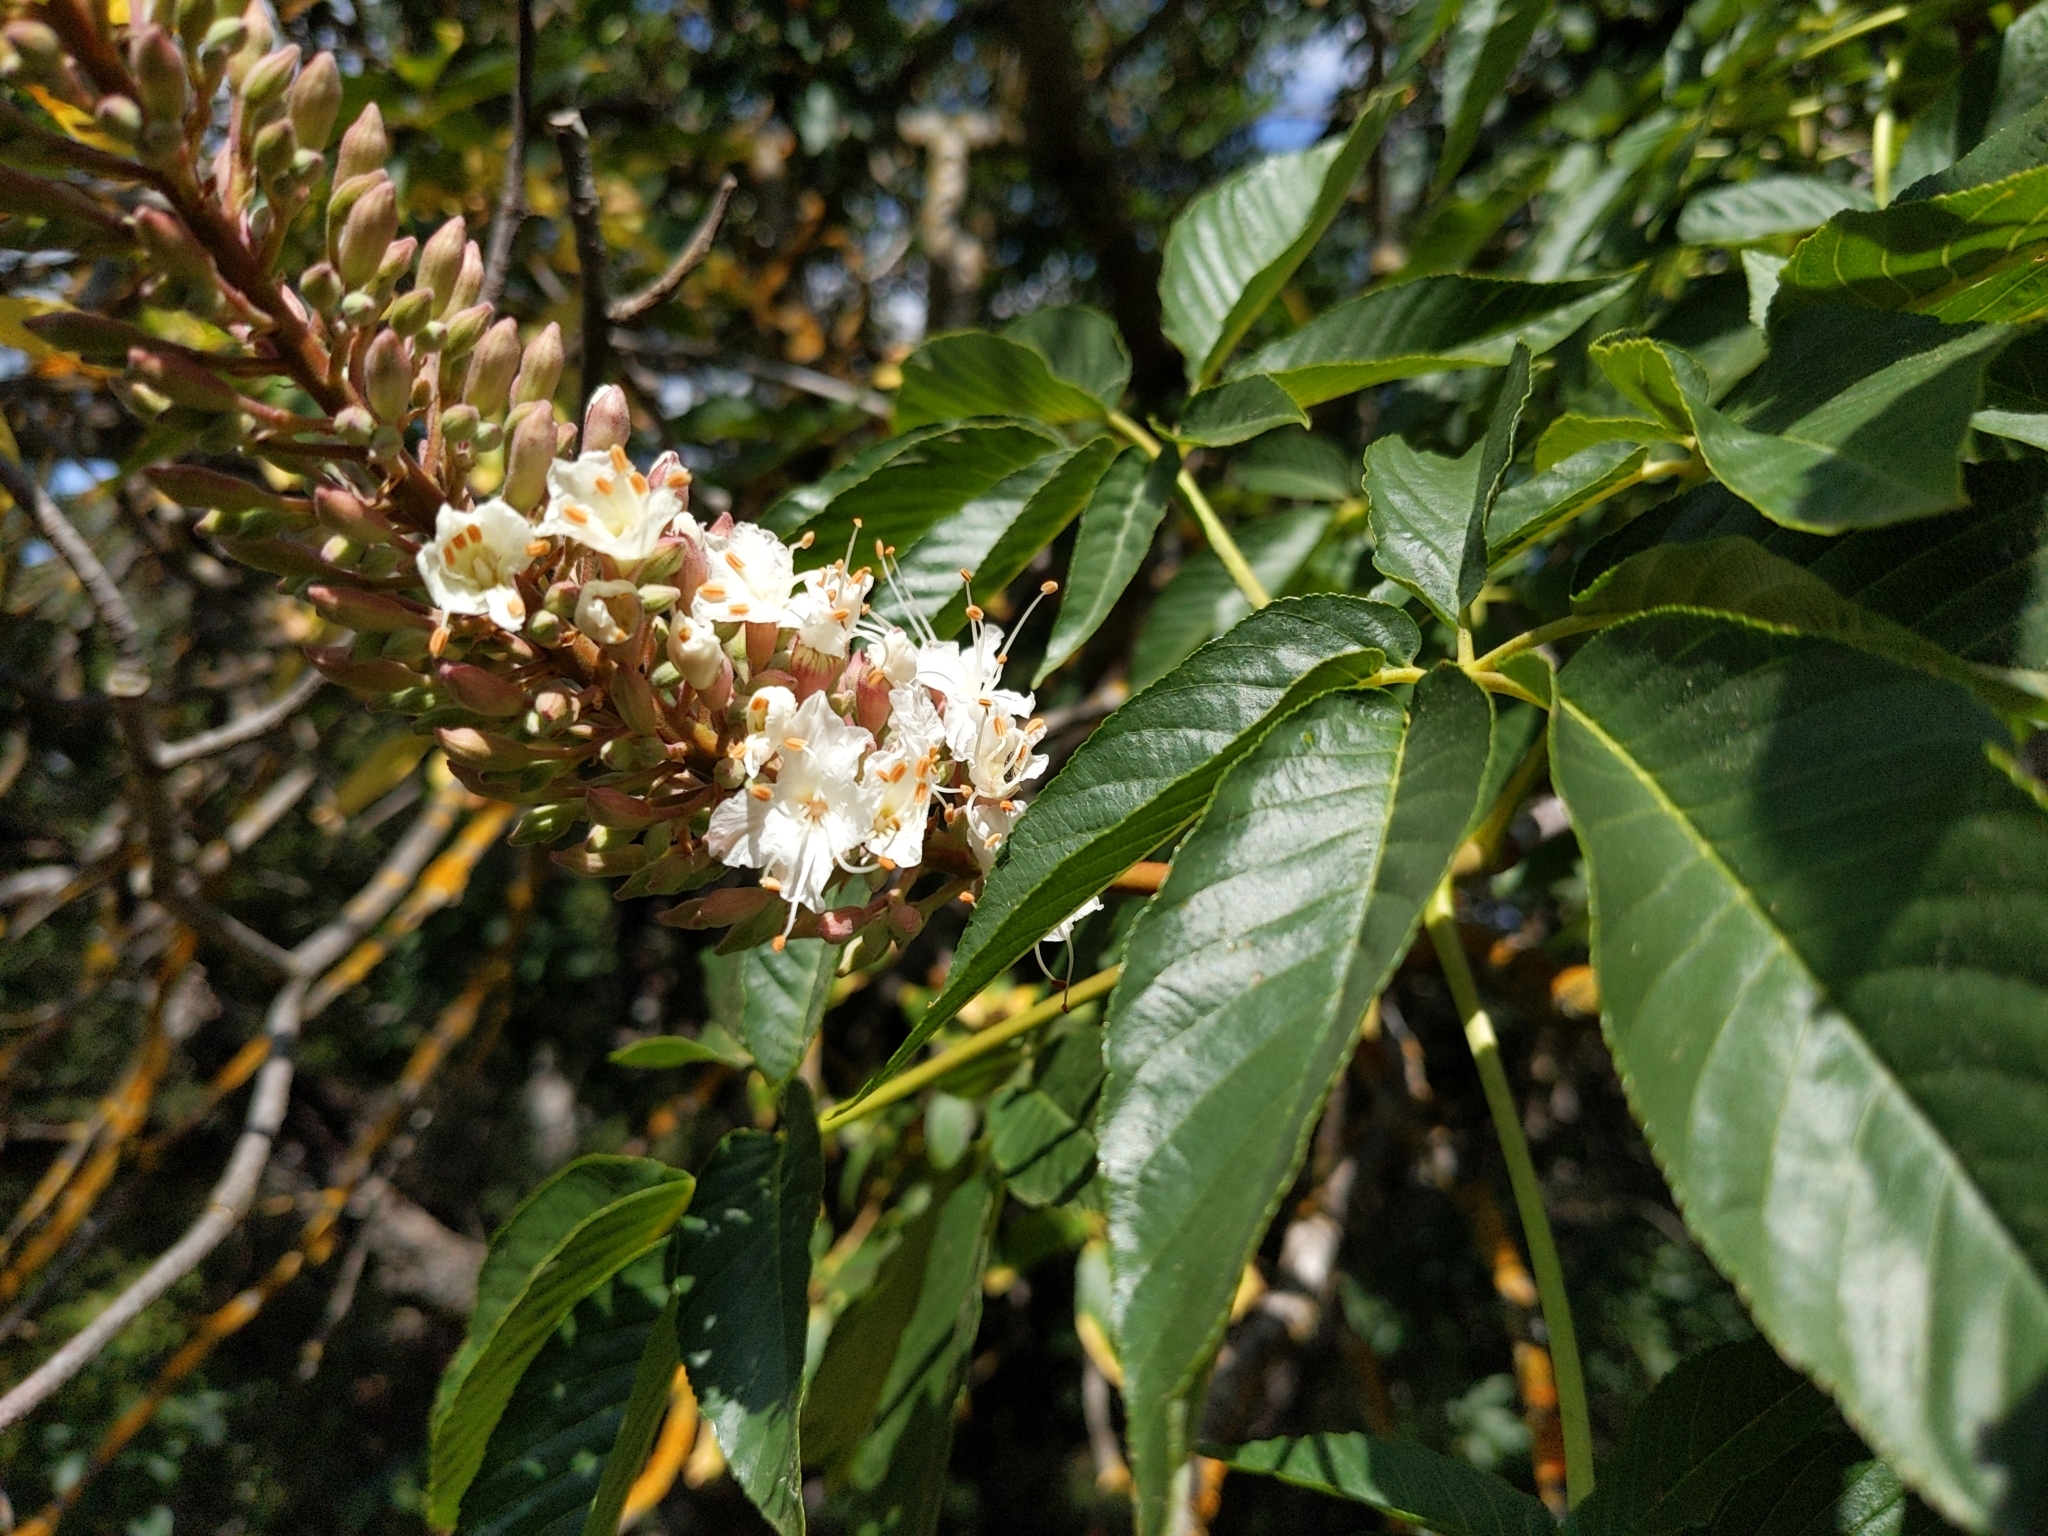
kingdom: Plantae
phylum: Tracheophyta
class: Magnoliopsida
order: Sapindales
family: Sapindaceae
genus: Aesculus
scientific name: Aesculus californica
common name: California buckeye
